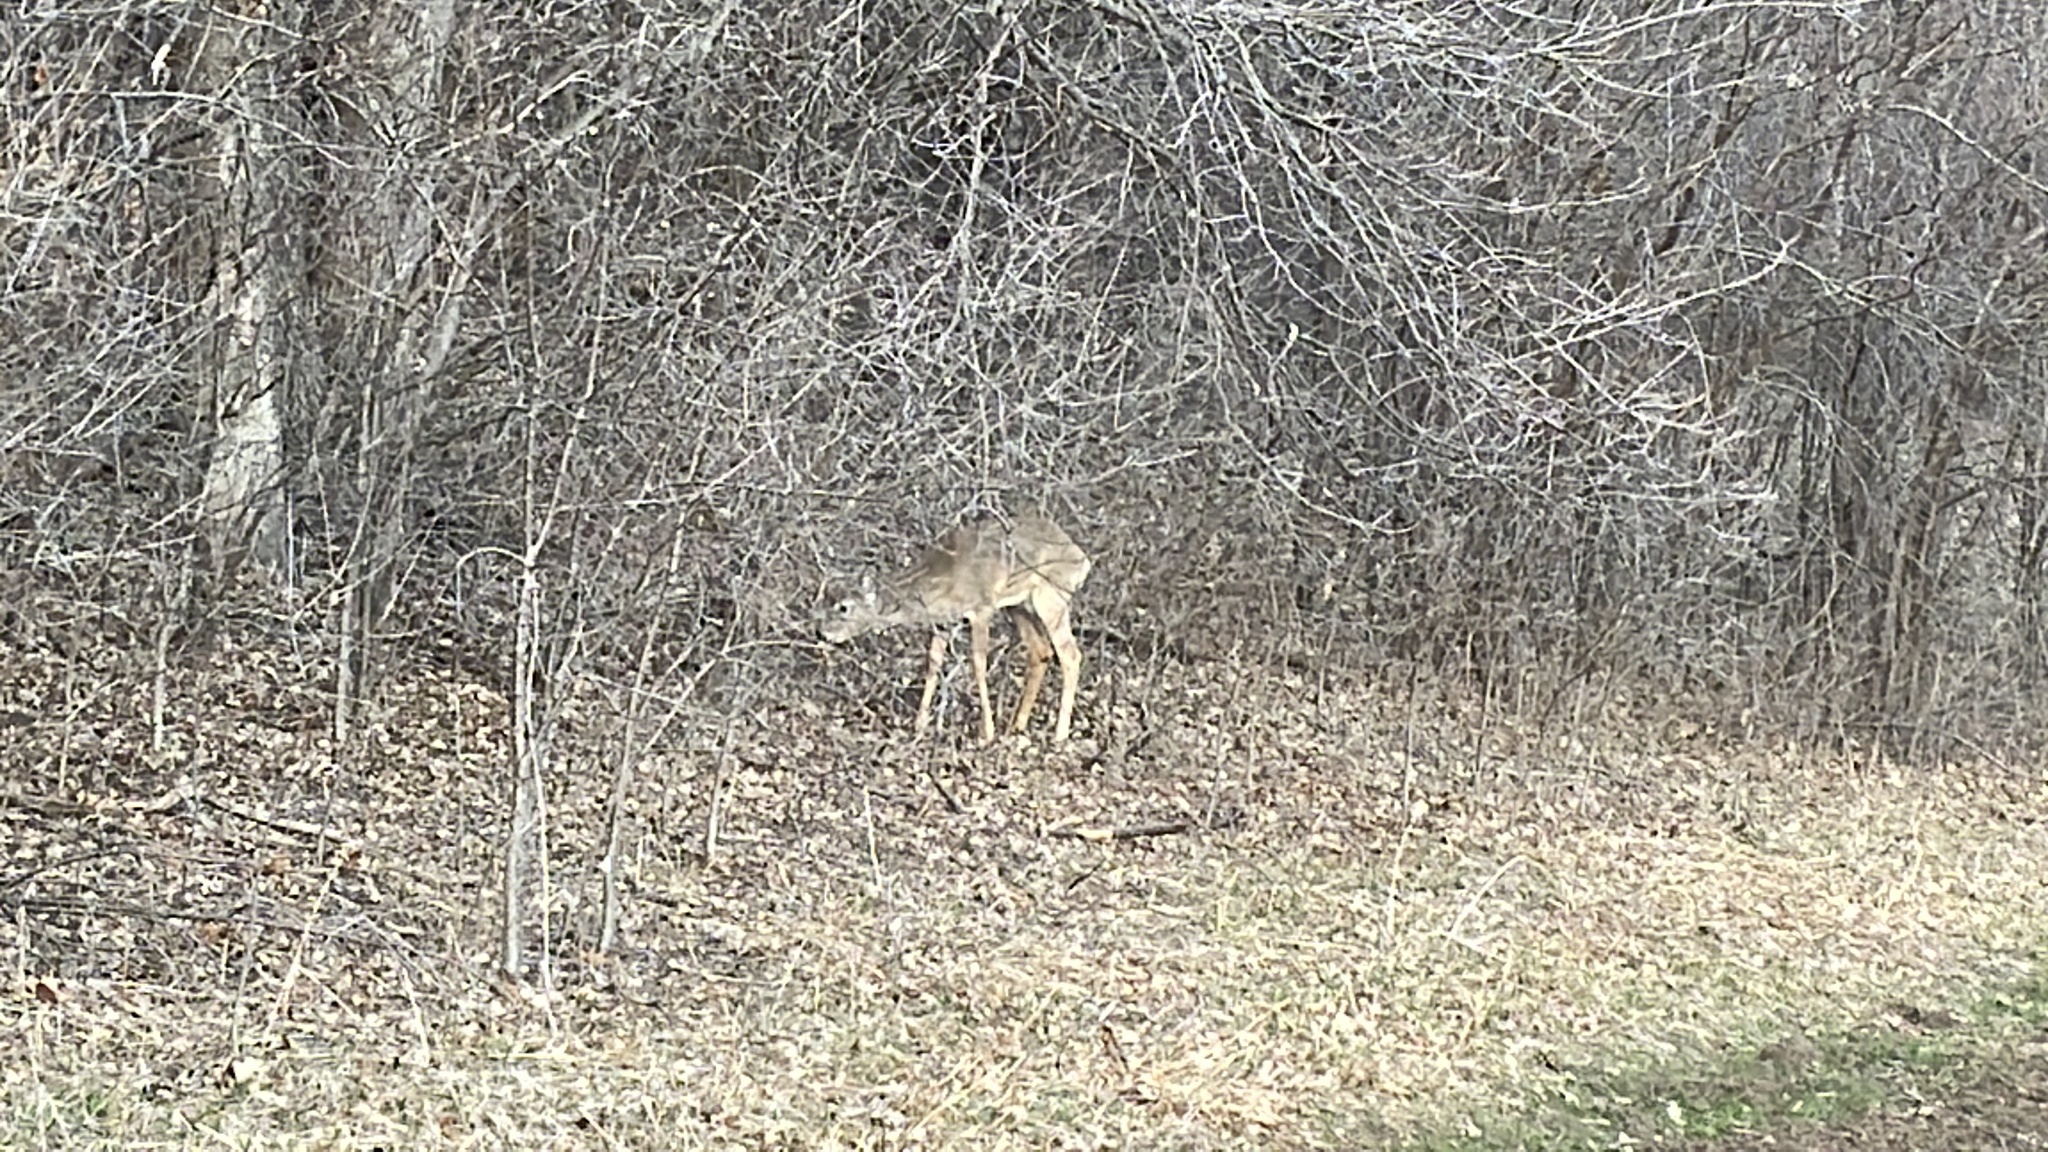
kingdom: Animalia
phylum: Chordata
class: Mammalia
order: Artiodactyla
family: Cervidae
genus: Odocoileus
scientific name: Odocoileus virginianus
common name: White-tailed deer
